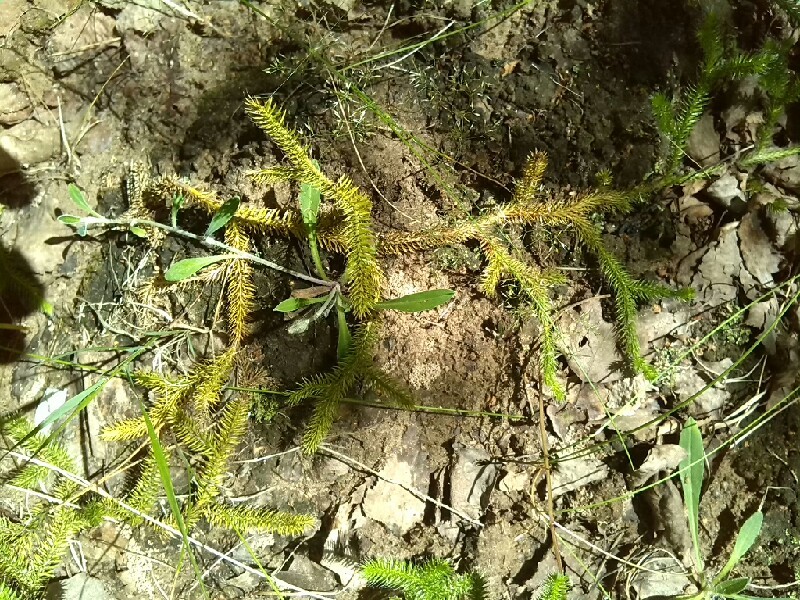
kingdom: Plantae
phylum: Tracheophyta
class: Lycopodiopsida
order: Lycopodiales
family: Lycopodiaceae
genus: Lycopodium
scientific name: Lycopodium clavatum
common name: Stag's-horn clubmoss
